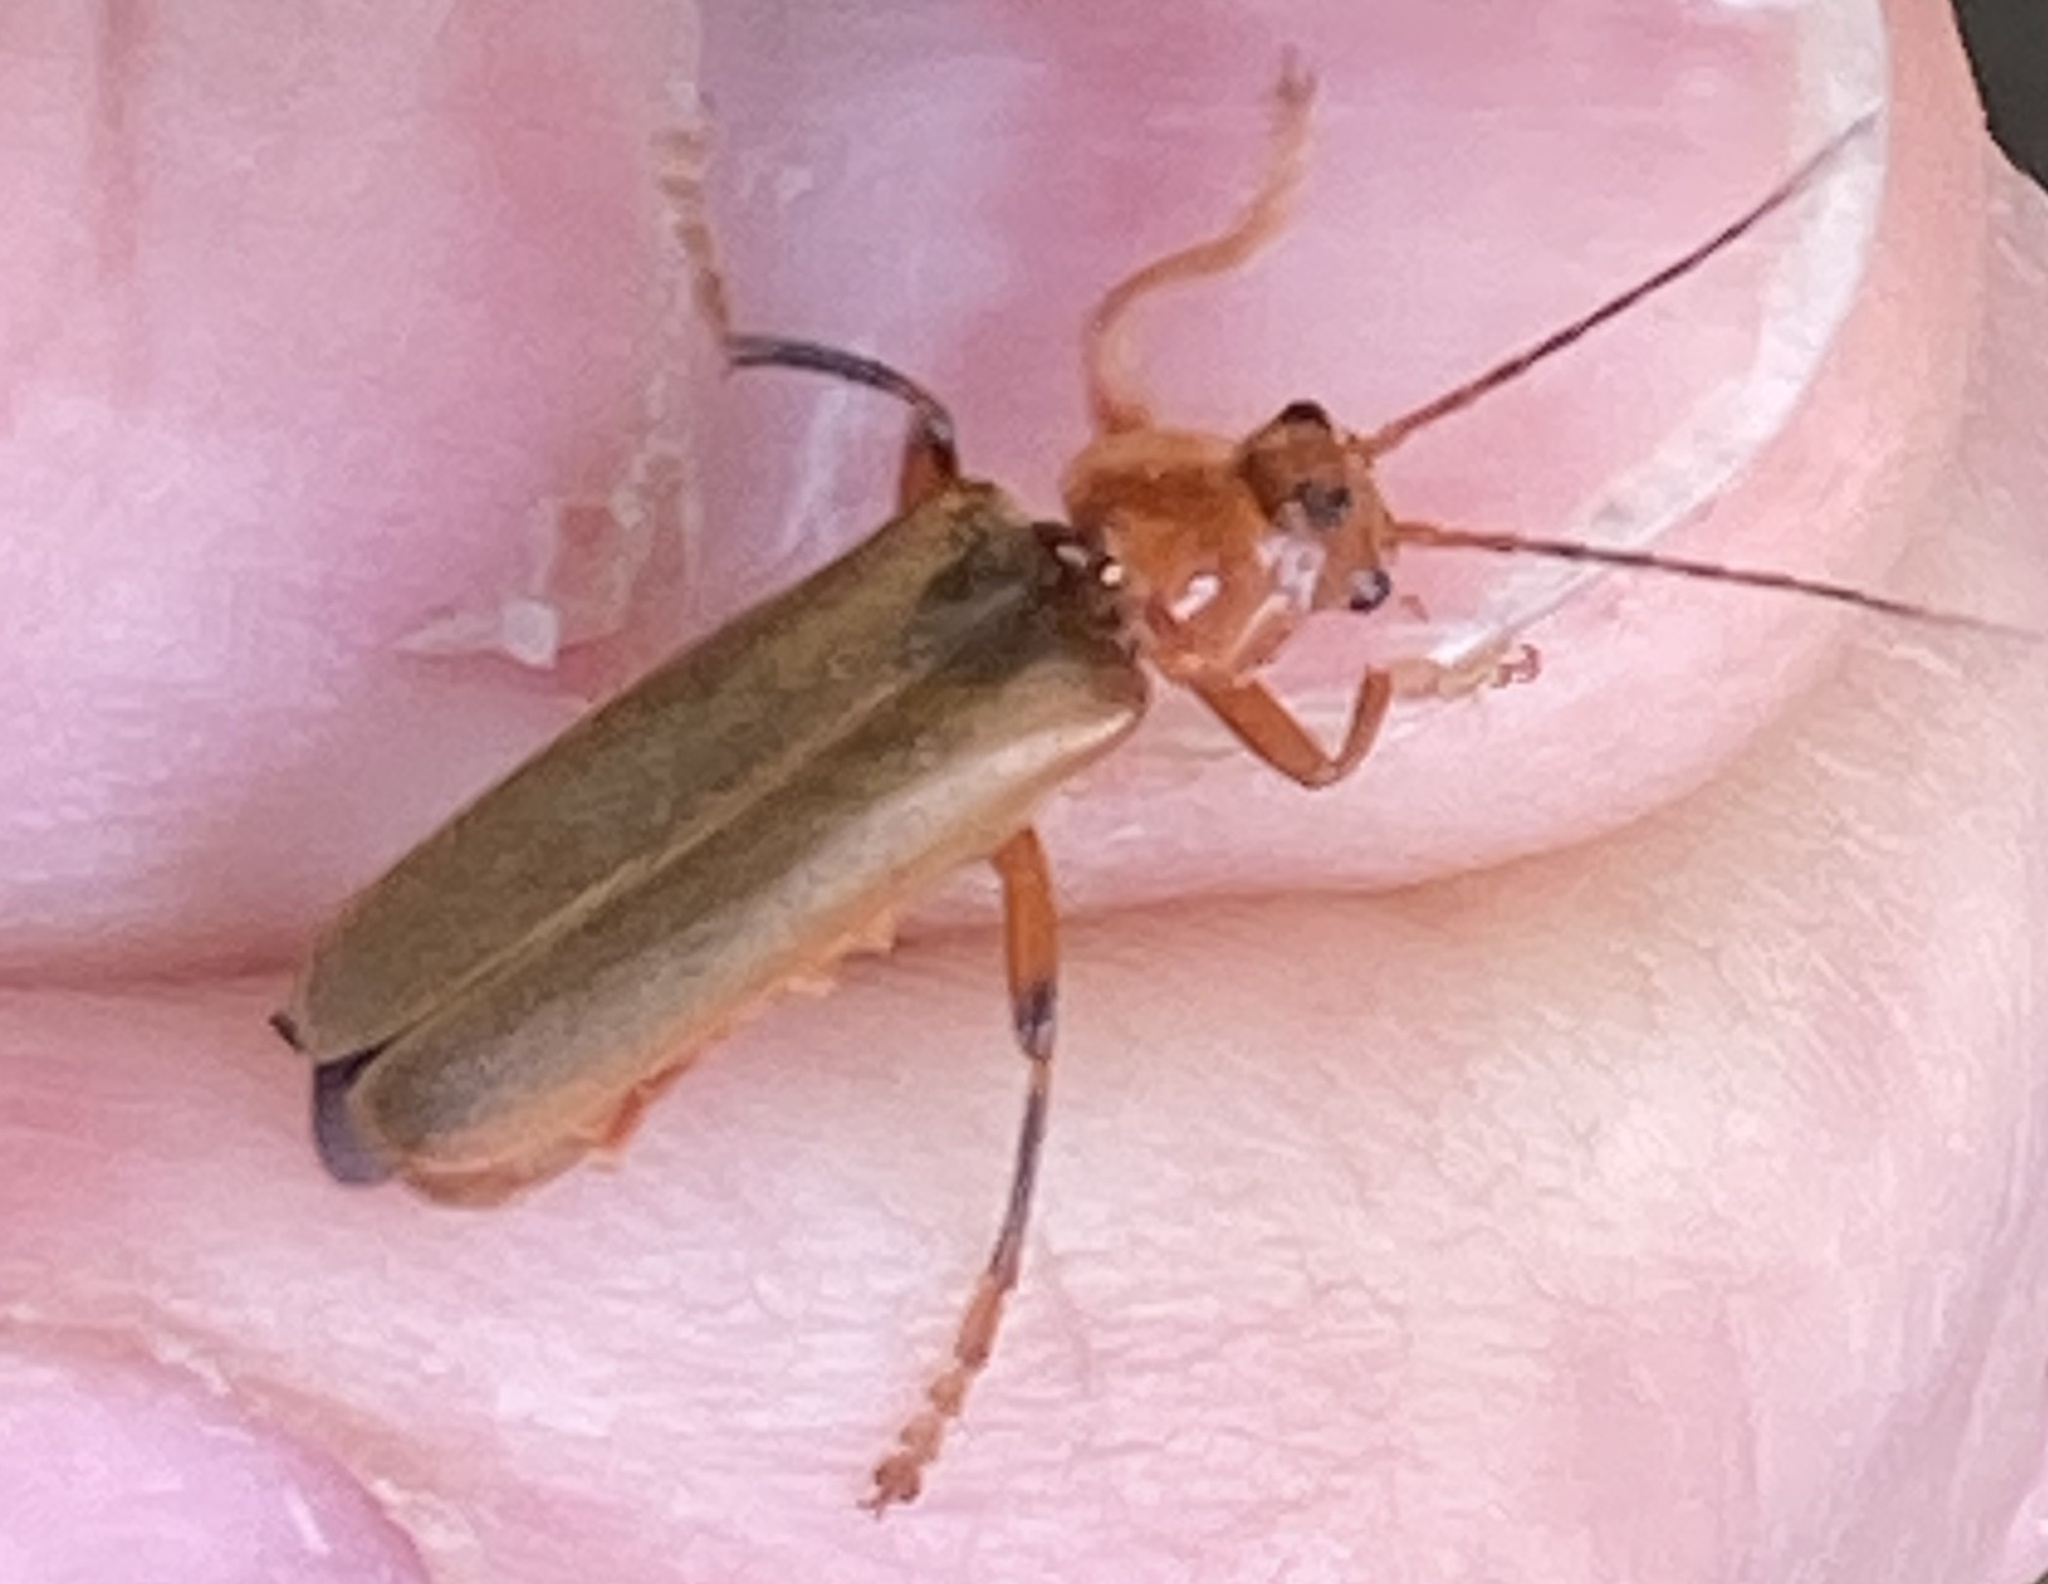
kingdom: Animalia
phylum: Arthropoda
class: Insecta
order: Coleoptera
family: Cantharidae
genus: Cantharis
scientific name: Cantharis livida
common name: Livid soldier beetle
